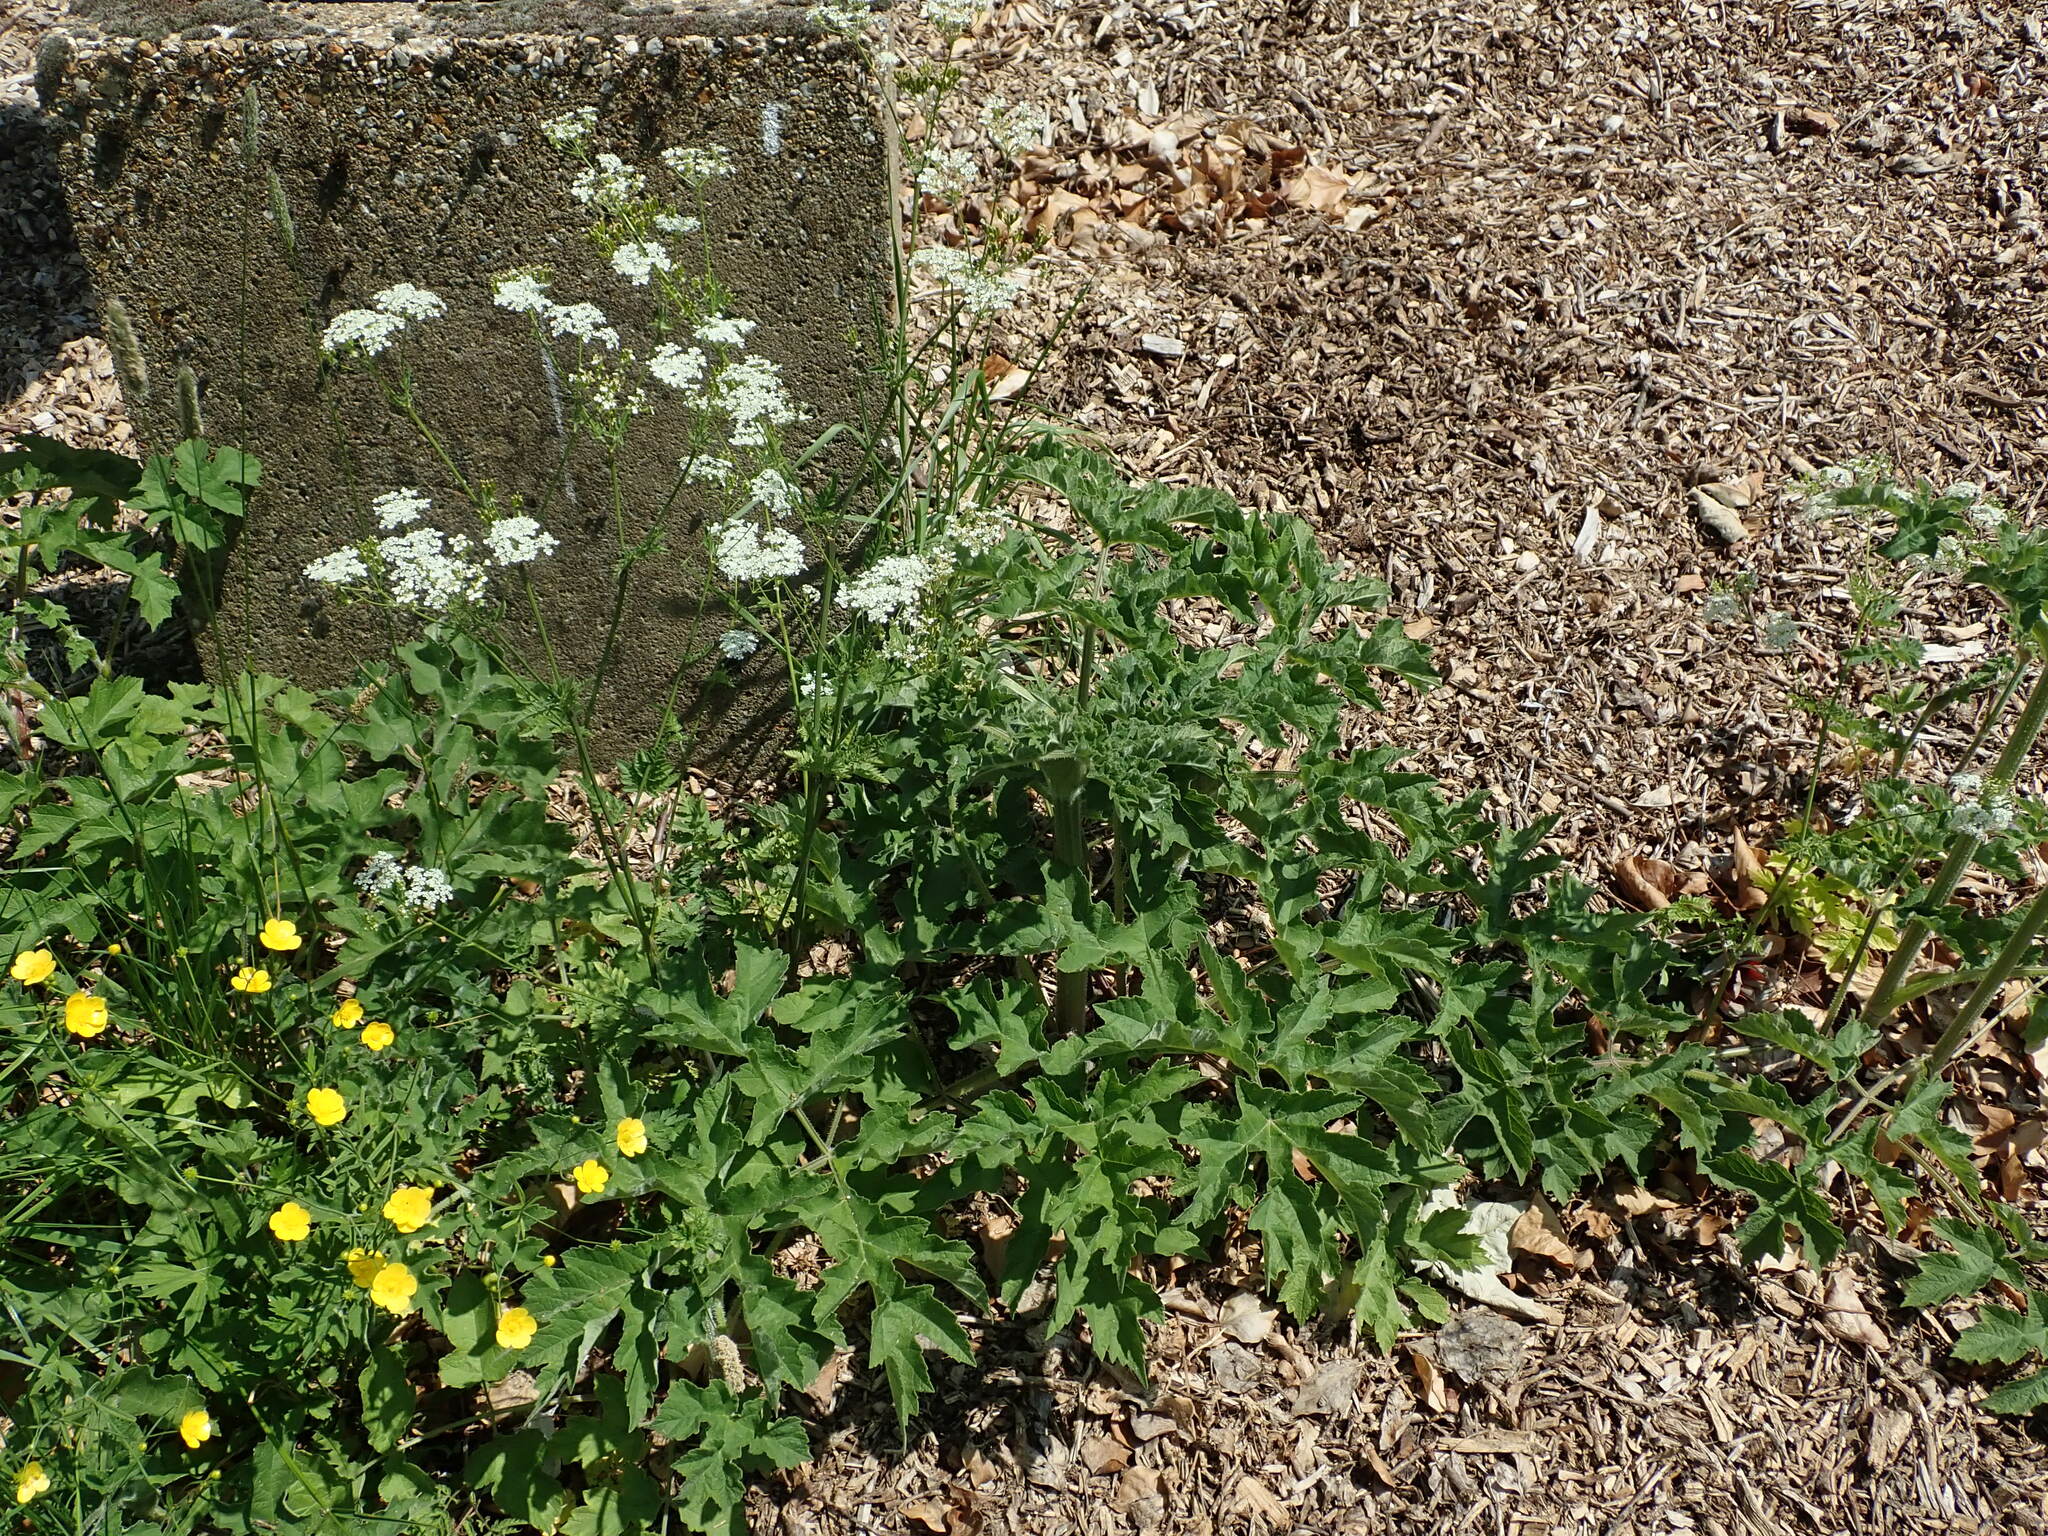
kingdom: Plantae
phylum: Tracheophyta
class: Magnoliopsida
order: Apiales
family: Apiaceae
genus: Heracleum
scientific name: Heracleum sphondylium
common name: Hogweed
